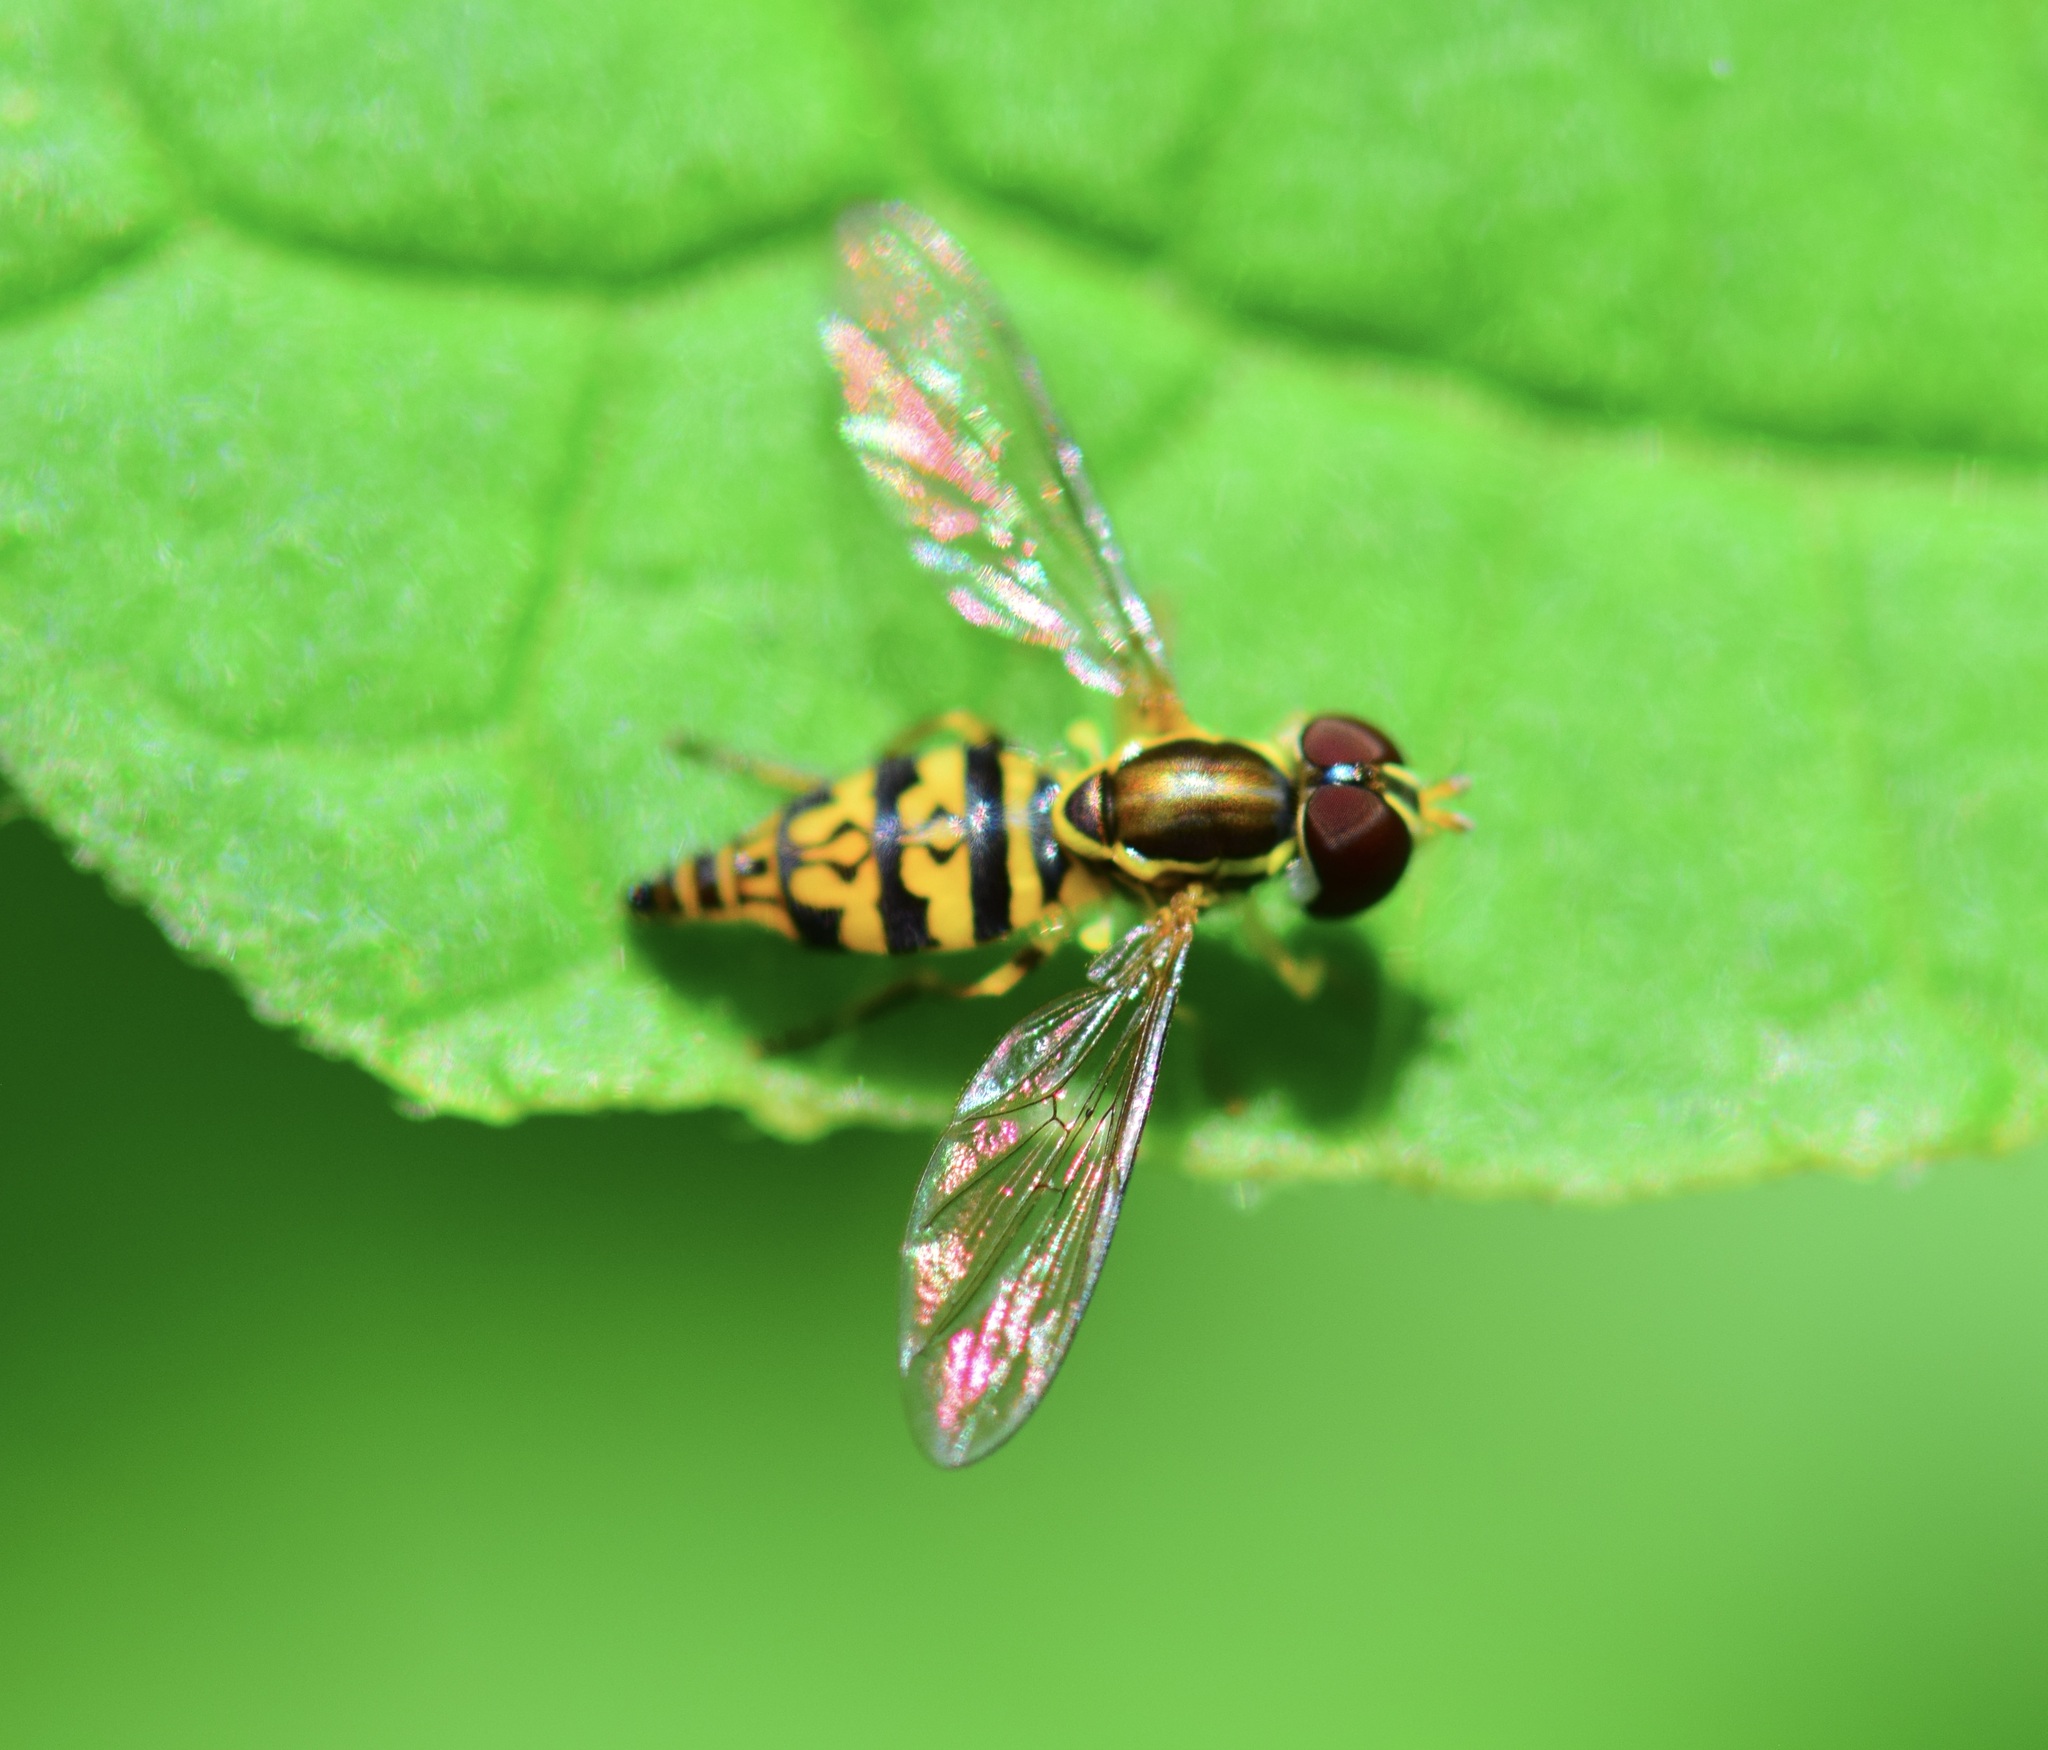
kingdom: Animalia
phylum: Arthropoda
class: Insecta
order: Diptera
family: Syrphidae
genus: Toxomerus
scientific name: Toxomerus geminatus
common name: Eastern calligrapher
